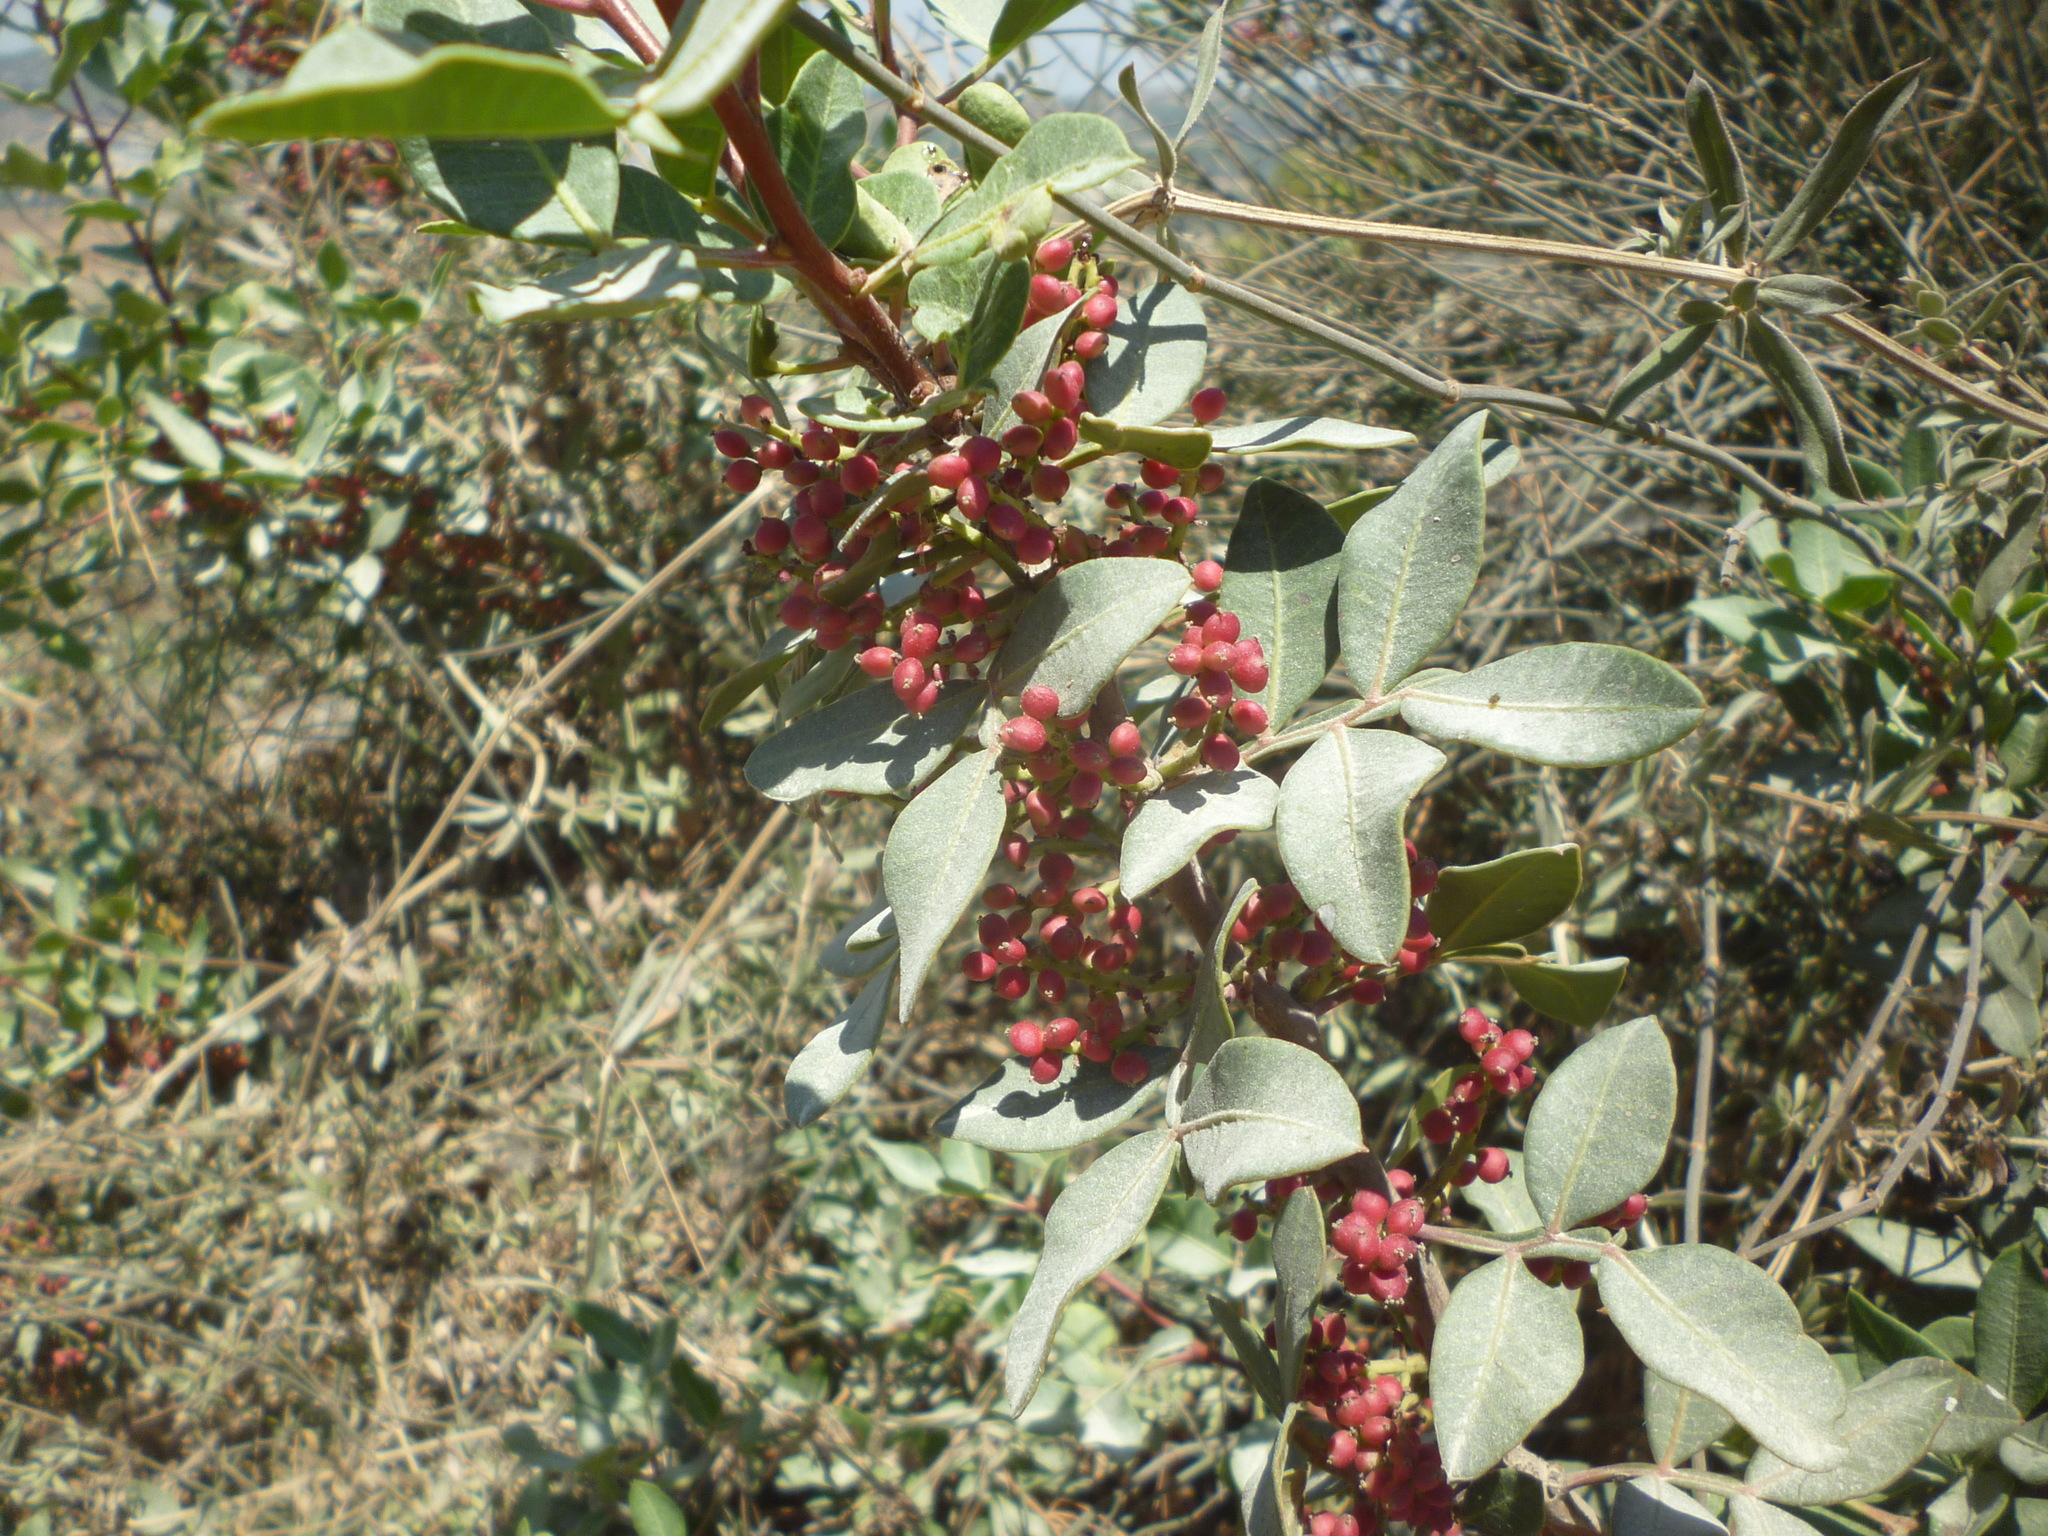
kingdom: Plantae
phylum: Tracheophyta
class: Magnoliopsida
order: Sapindales
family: Anacardiaceae
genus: Pistacia
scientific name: Pistacia lentiscus
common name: Lentisk
